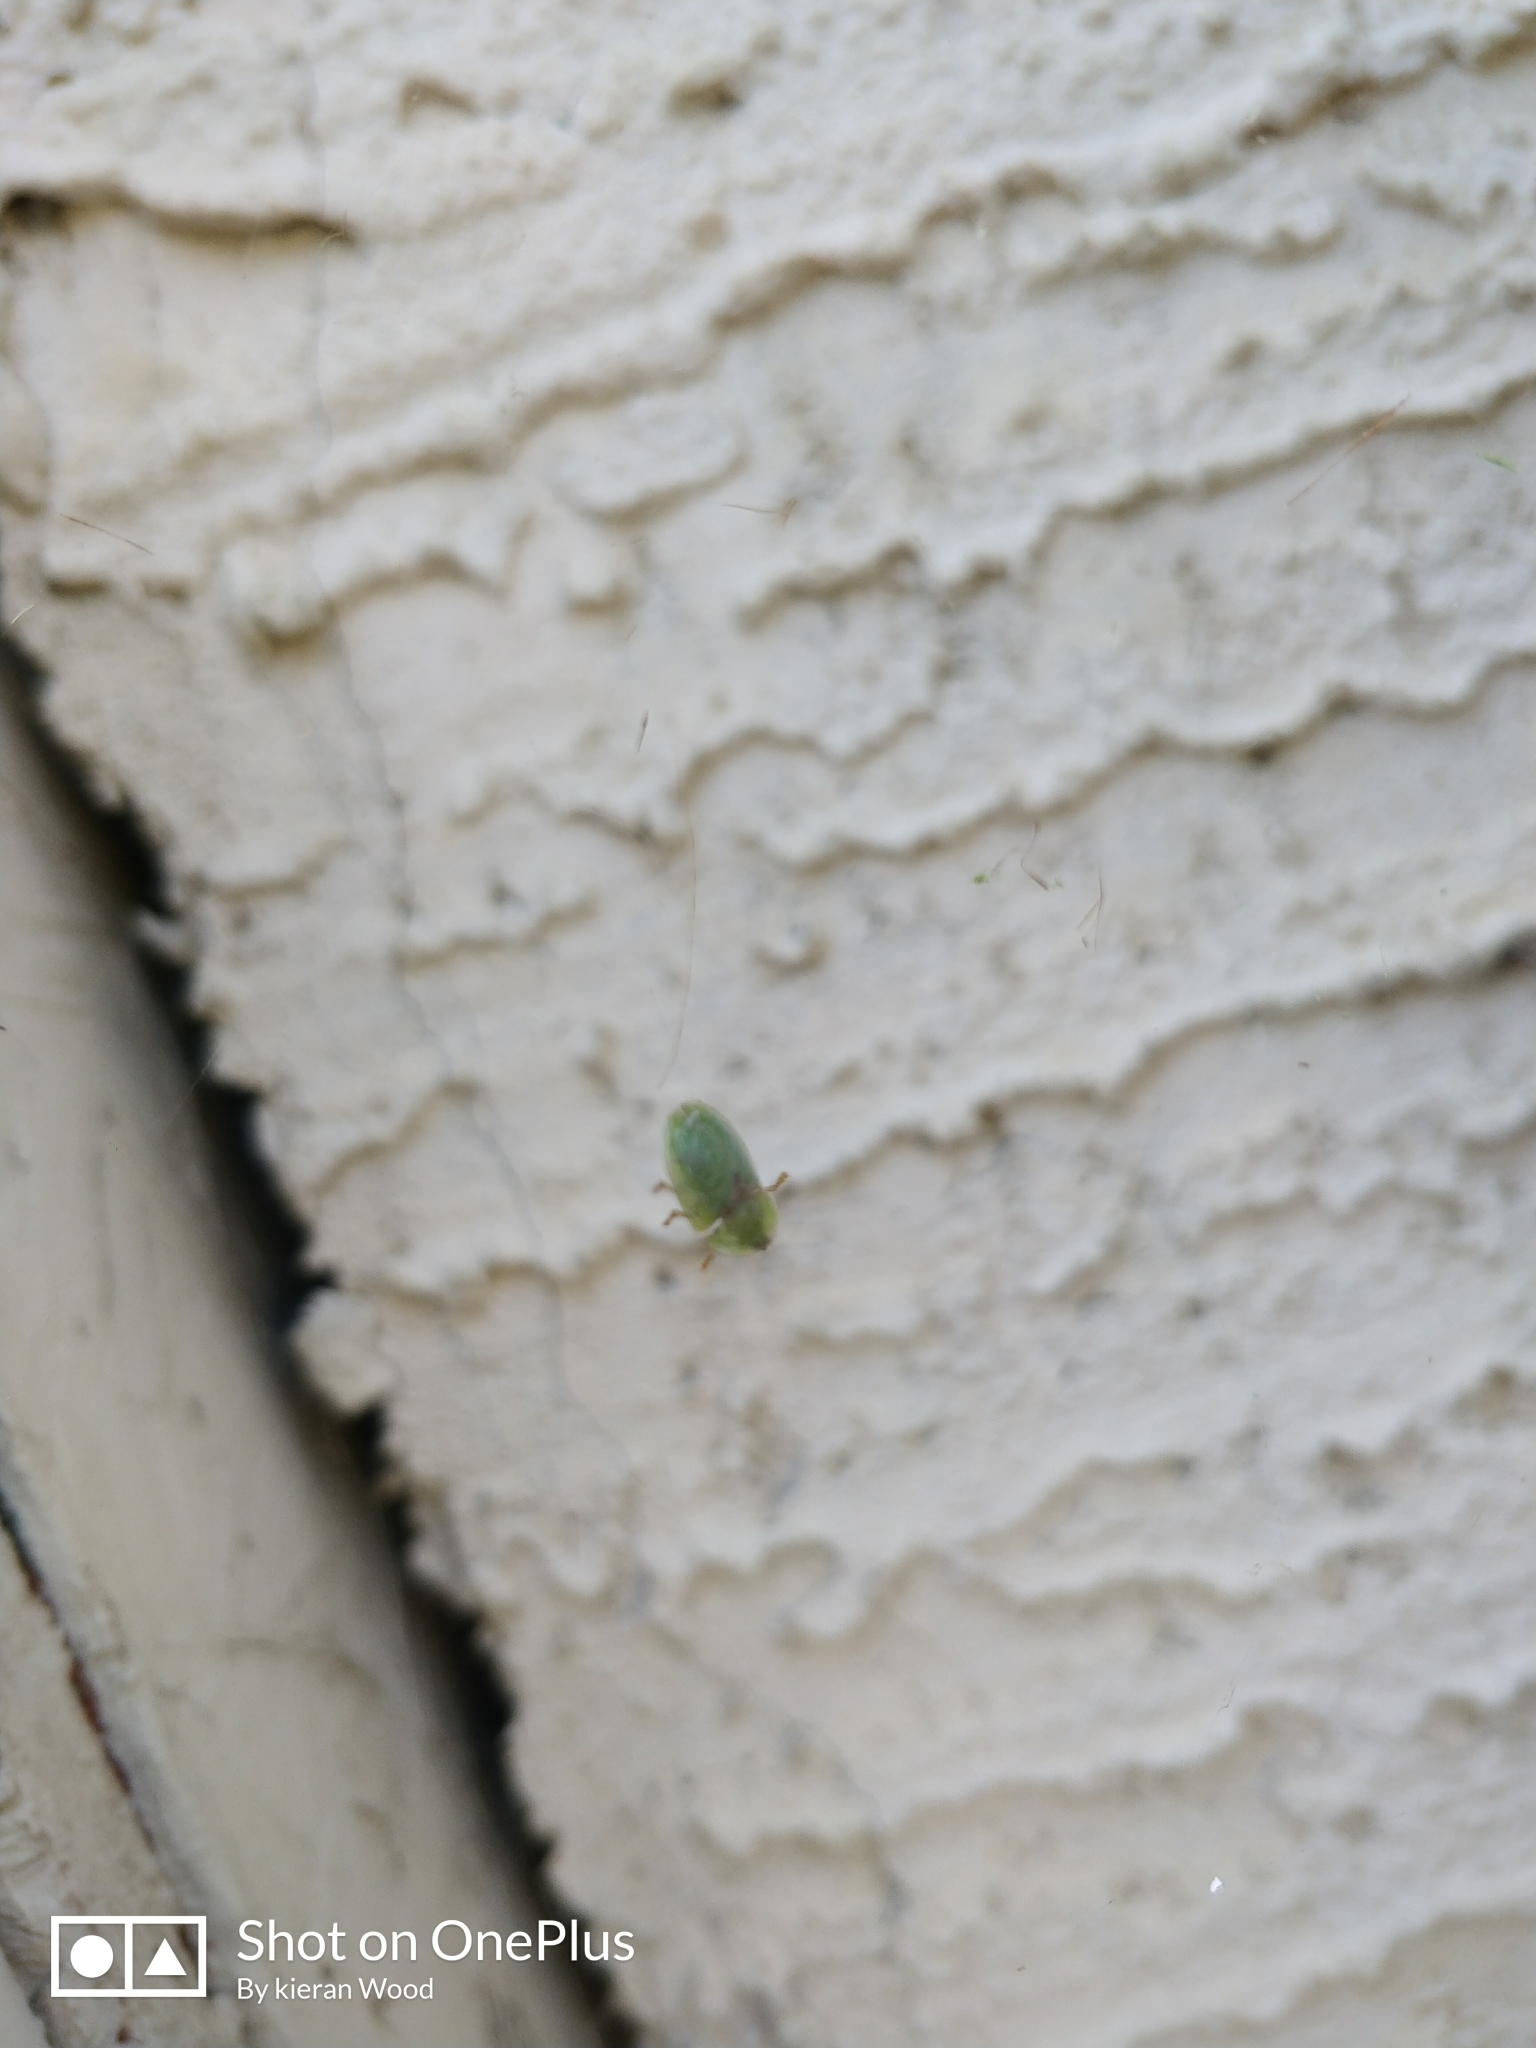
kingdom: Animalia
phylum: Arthropoda
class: Insecta
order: Coleoptera
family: Chrysomelidae
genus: Cassida
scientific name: Cassida rubiginosa
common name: Thistle tortoise beetle
